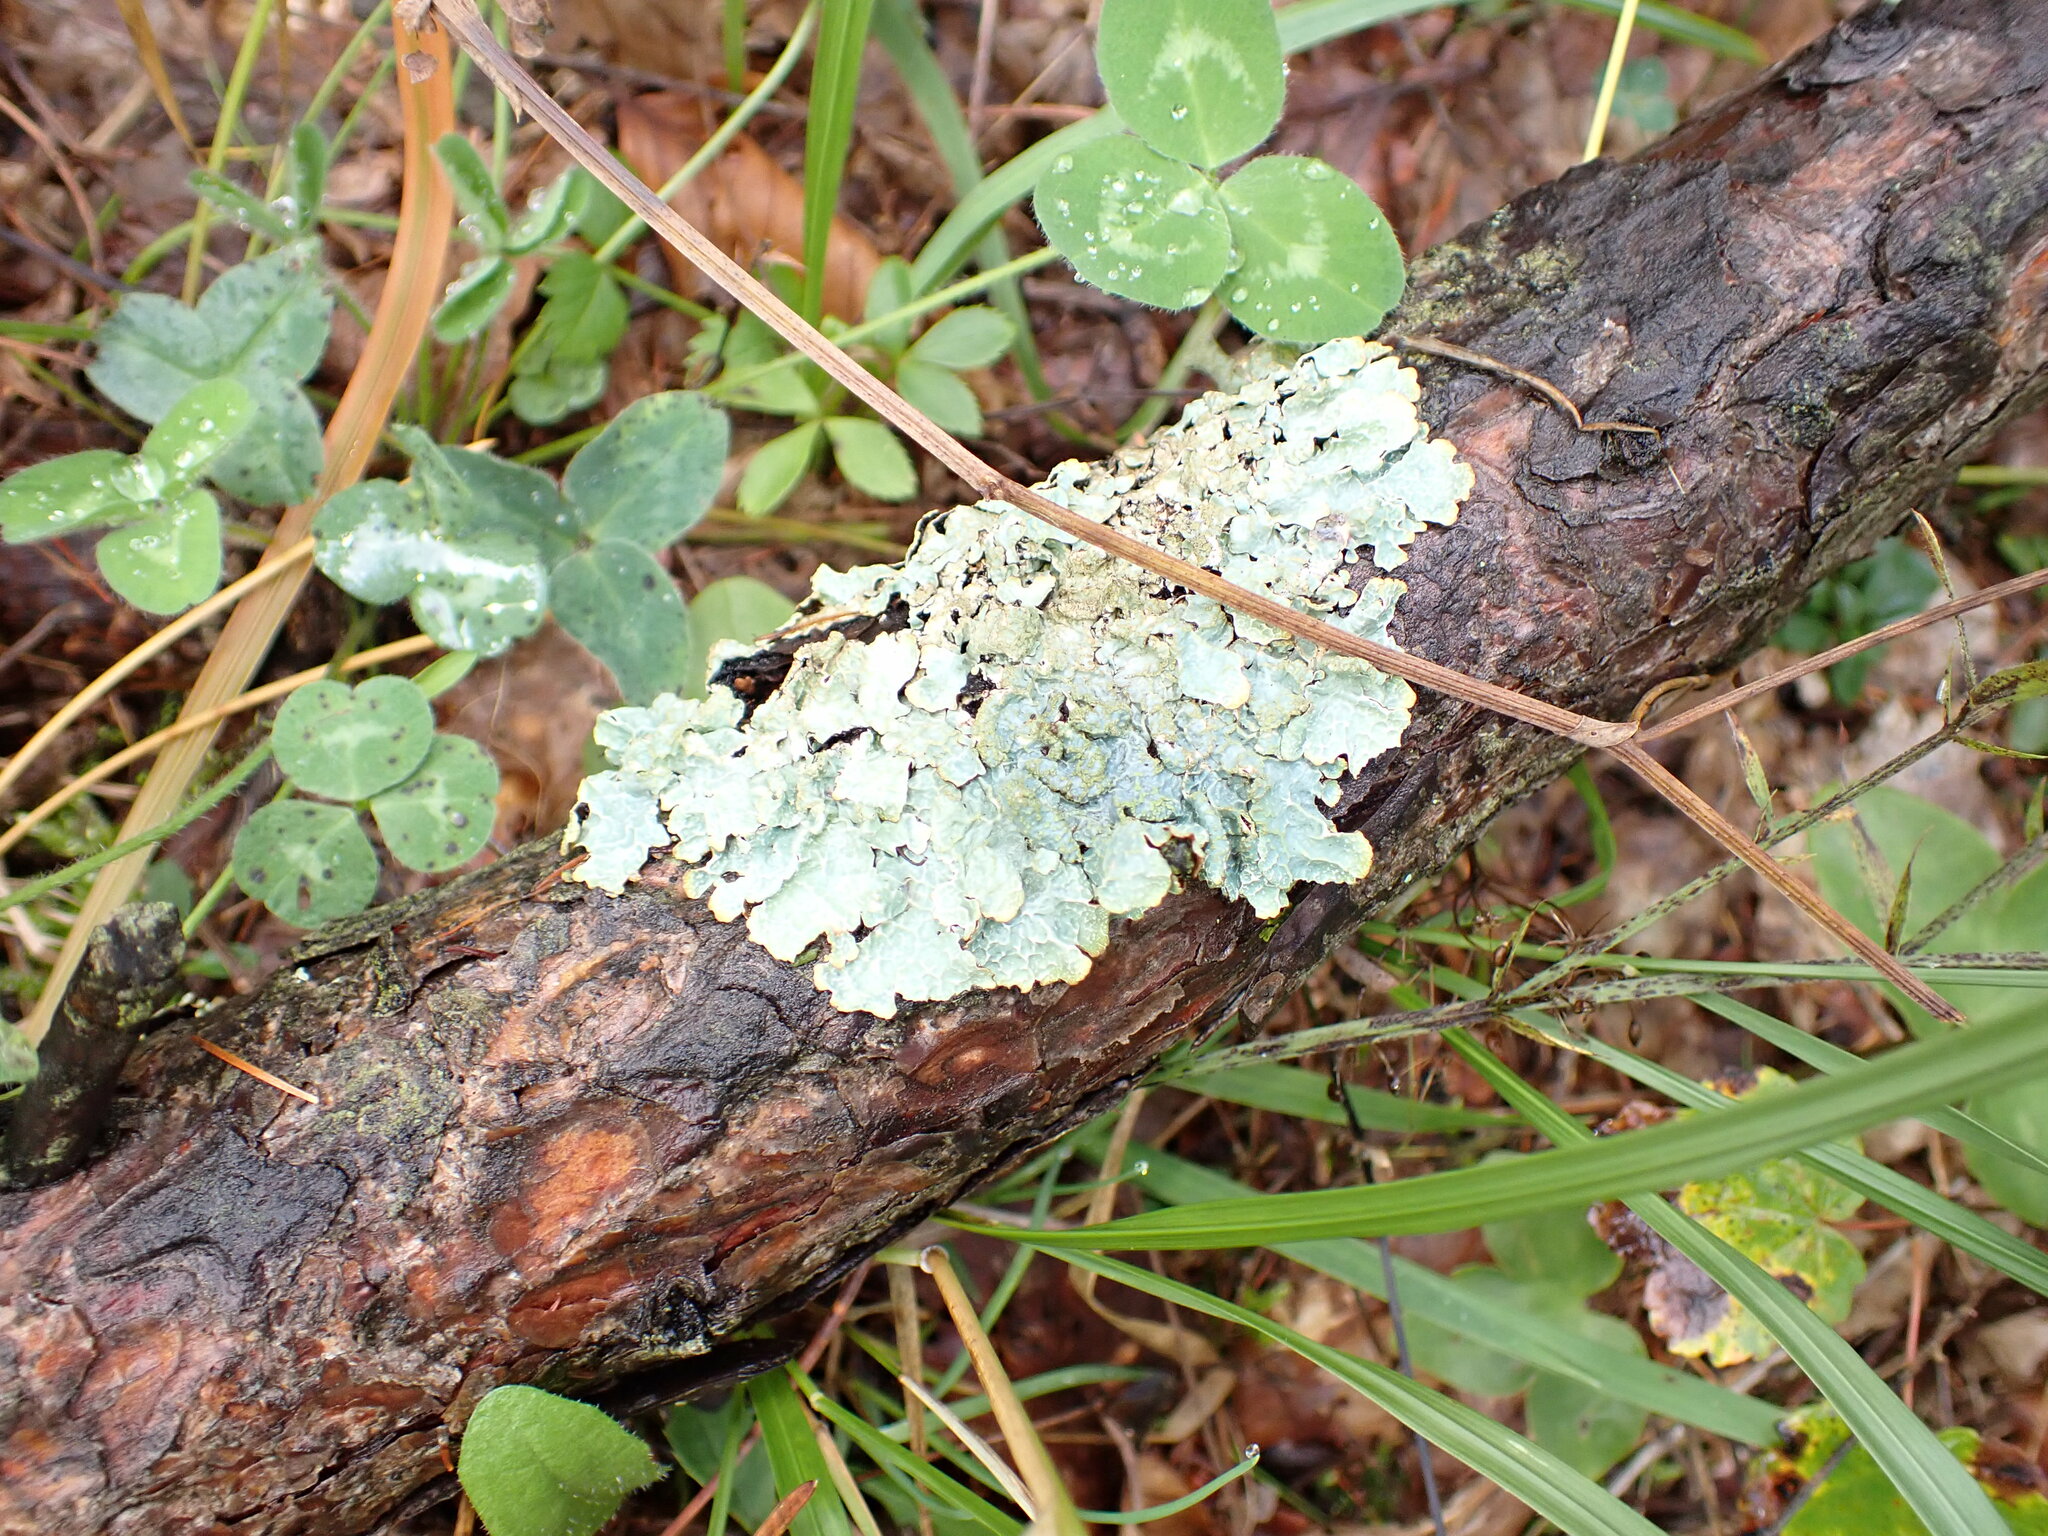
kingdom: Fungi
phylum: Ascomycota
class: Lecanoromycetes
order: Lecanorales
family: Parmeliaceae
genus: Parmelia
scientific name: Parmelia sulcata
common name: Netted shield lichen
